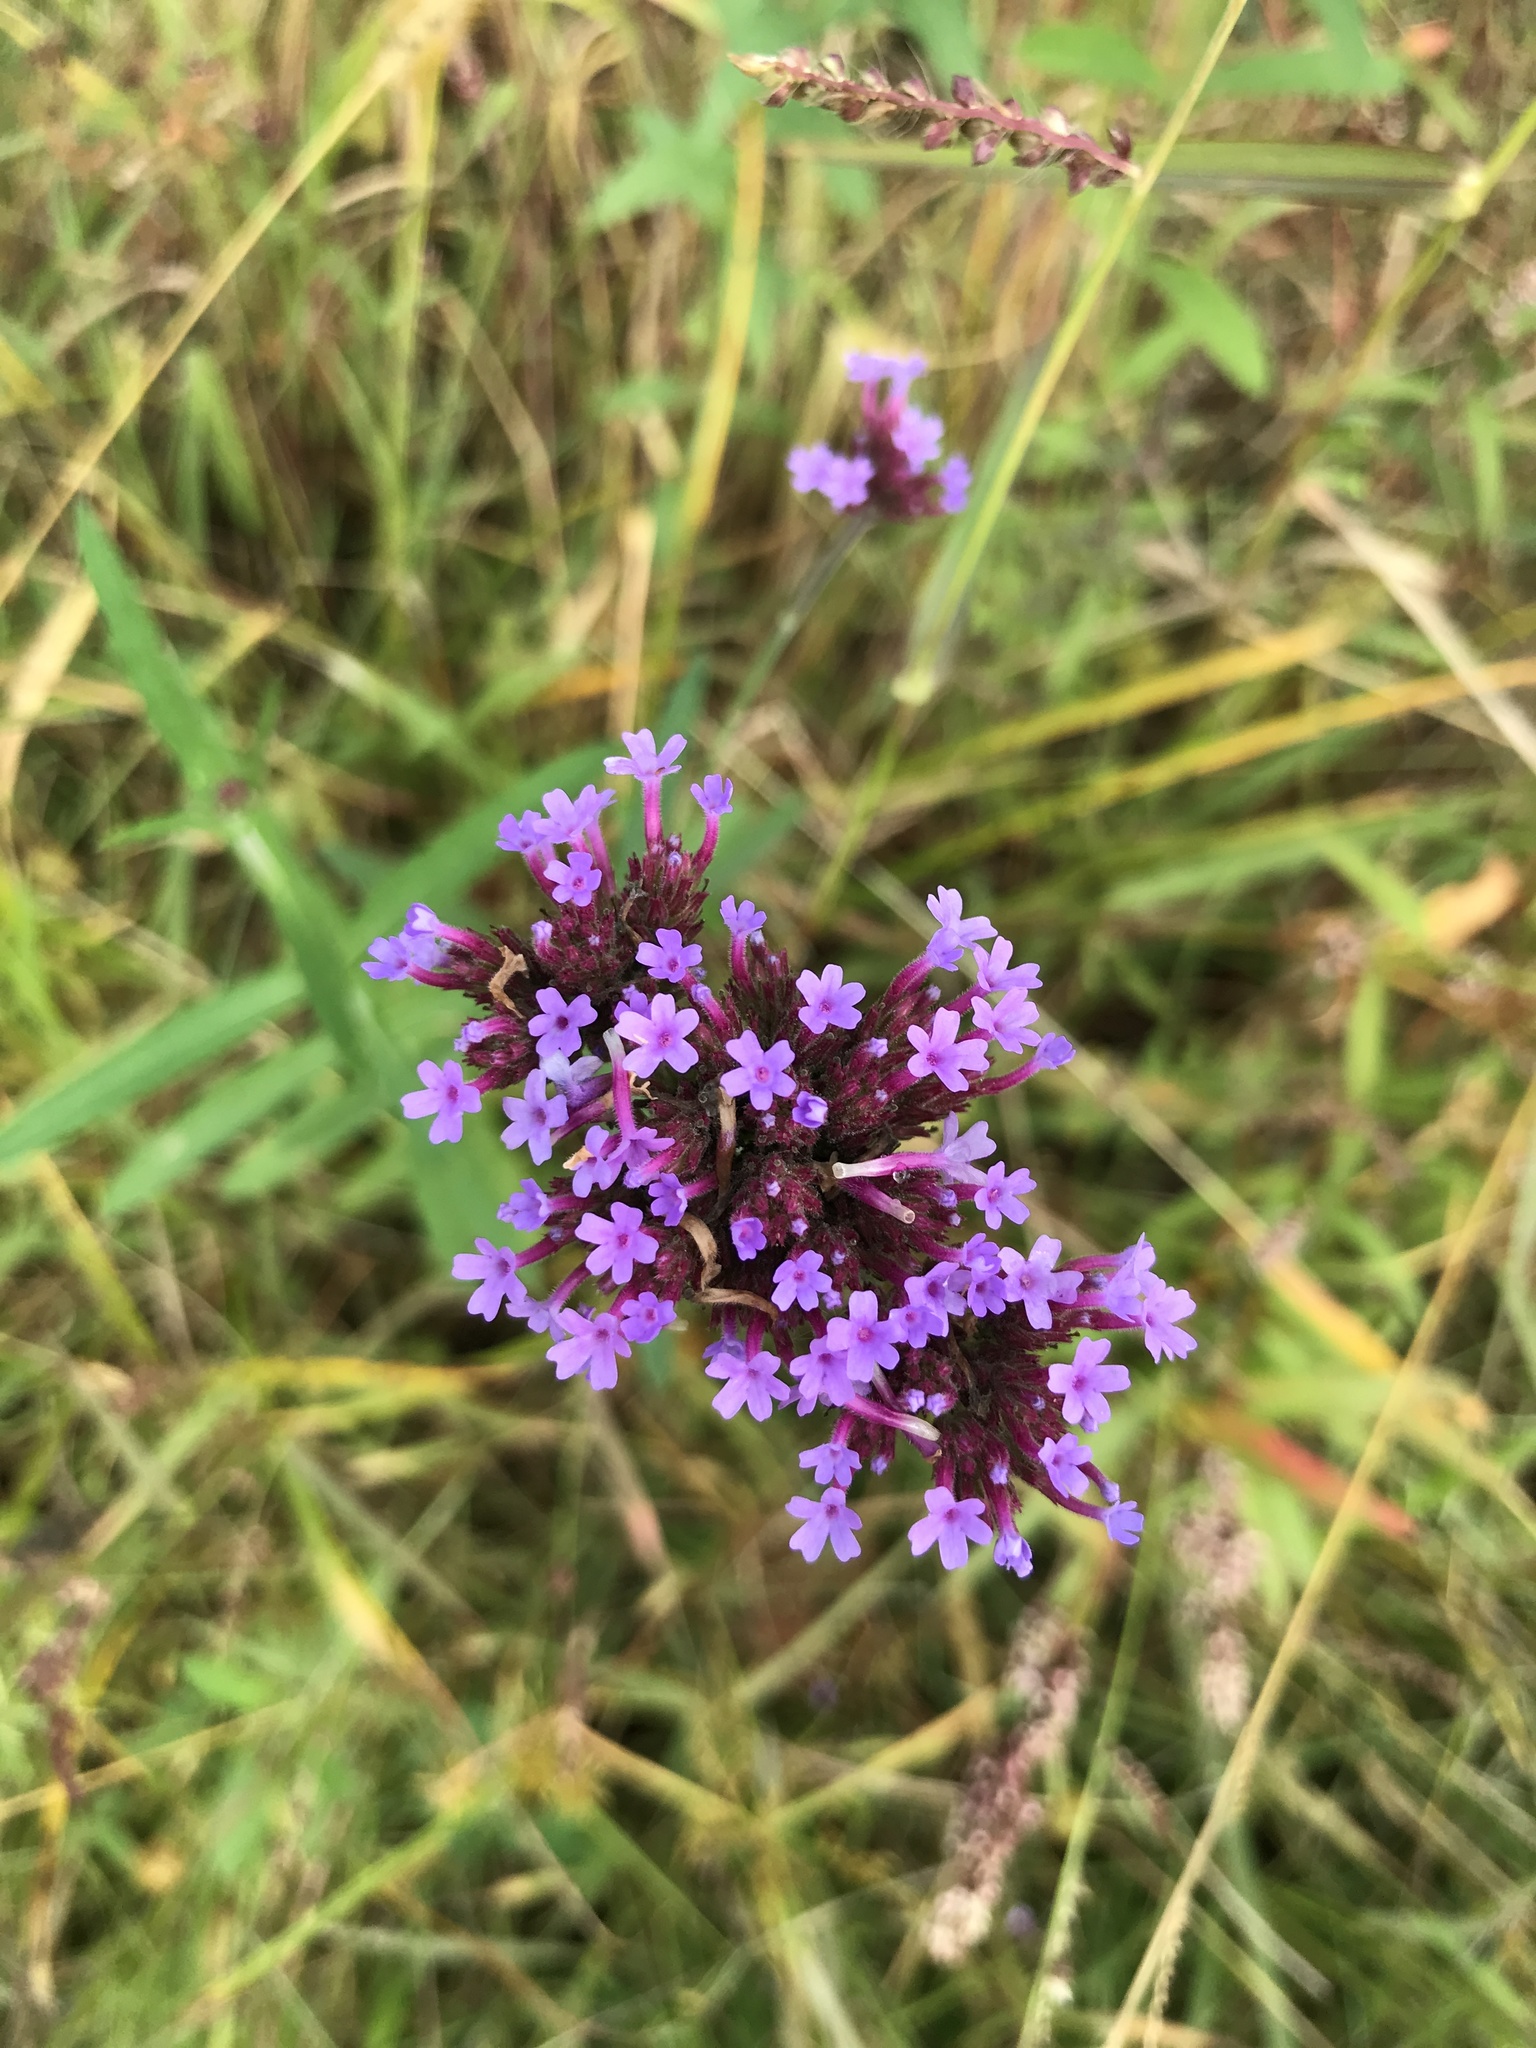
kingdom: Plantae
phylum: Tracheophyta
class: Magnoliopsida
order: Lamiales
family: Verbenaceae
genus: Verbena
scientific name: Verbena bonariensis
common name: Purpletop vervain
